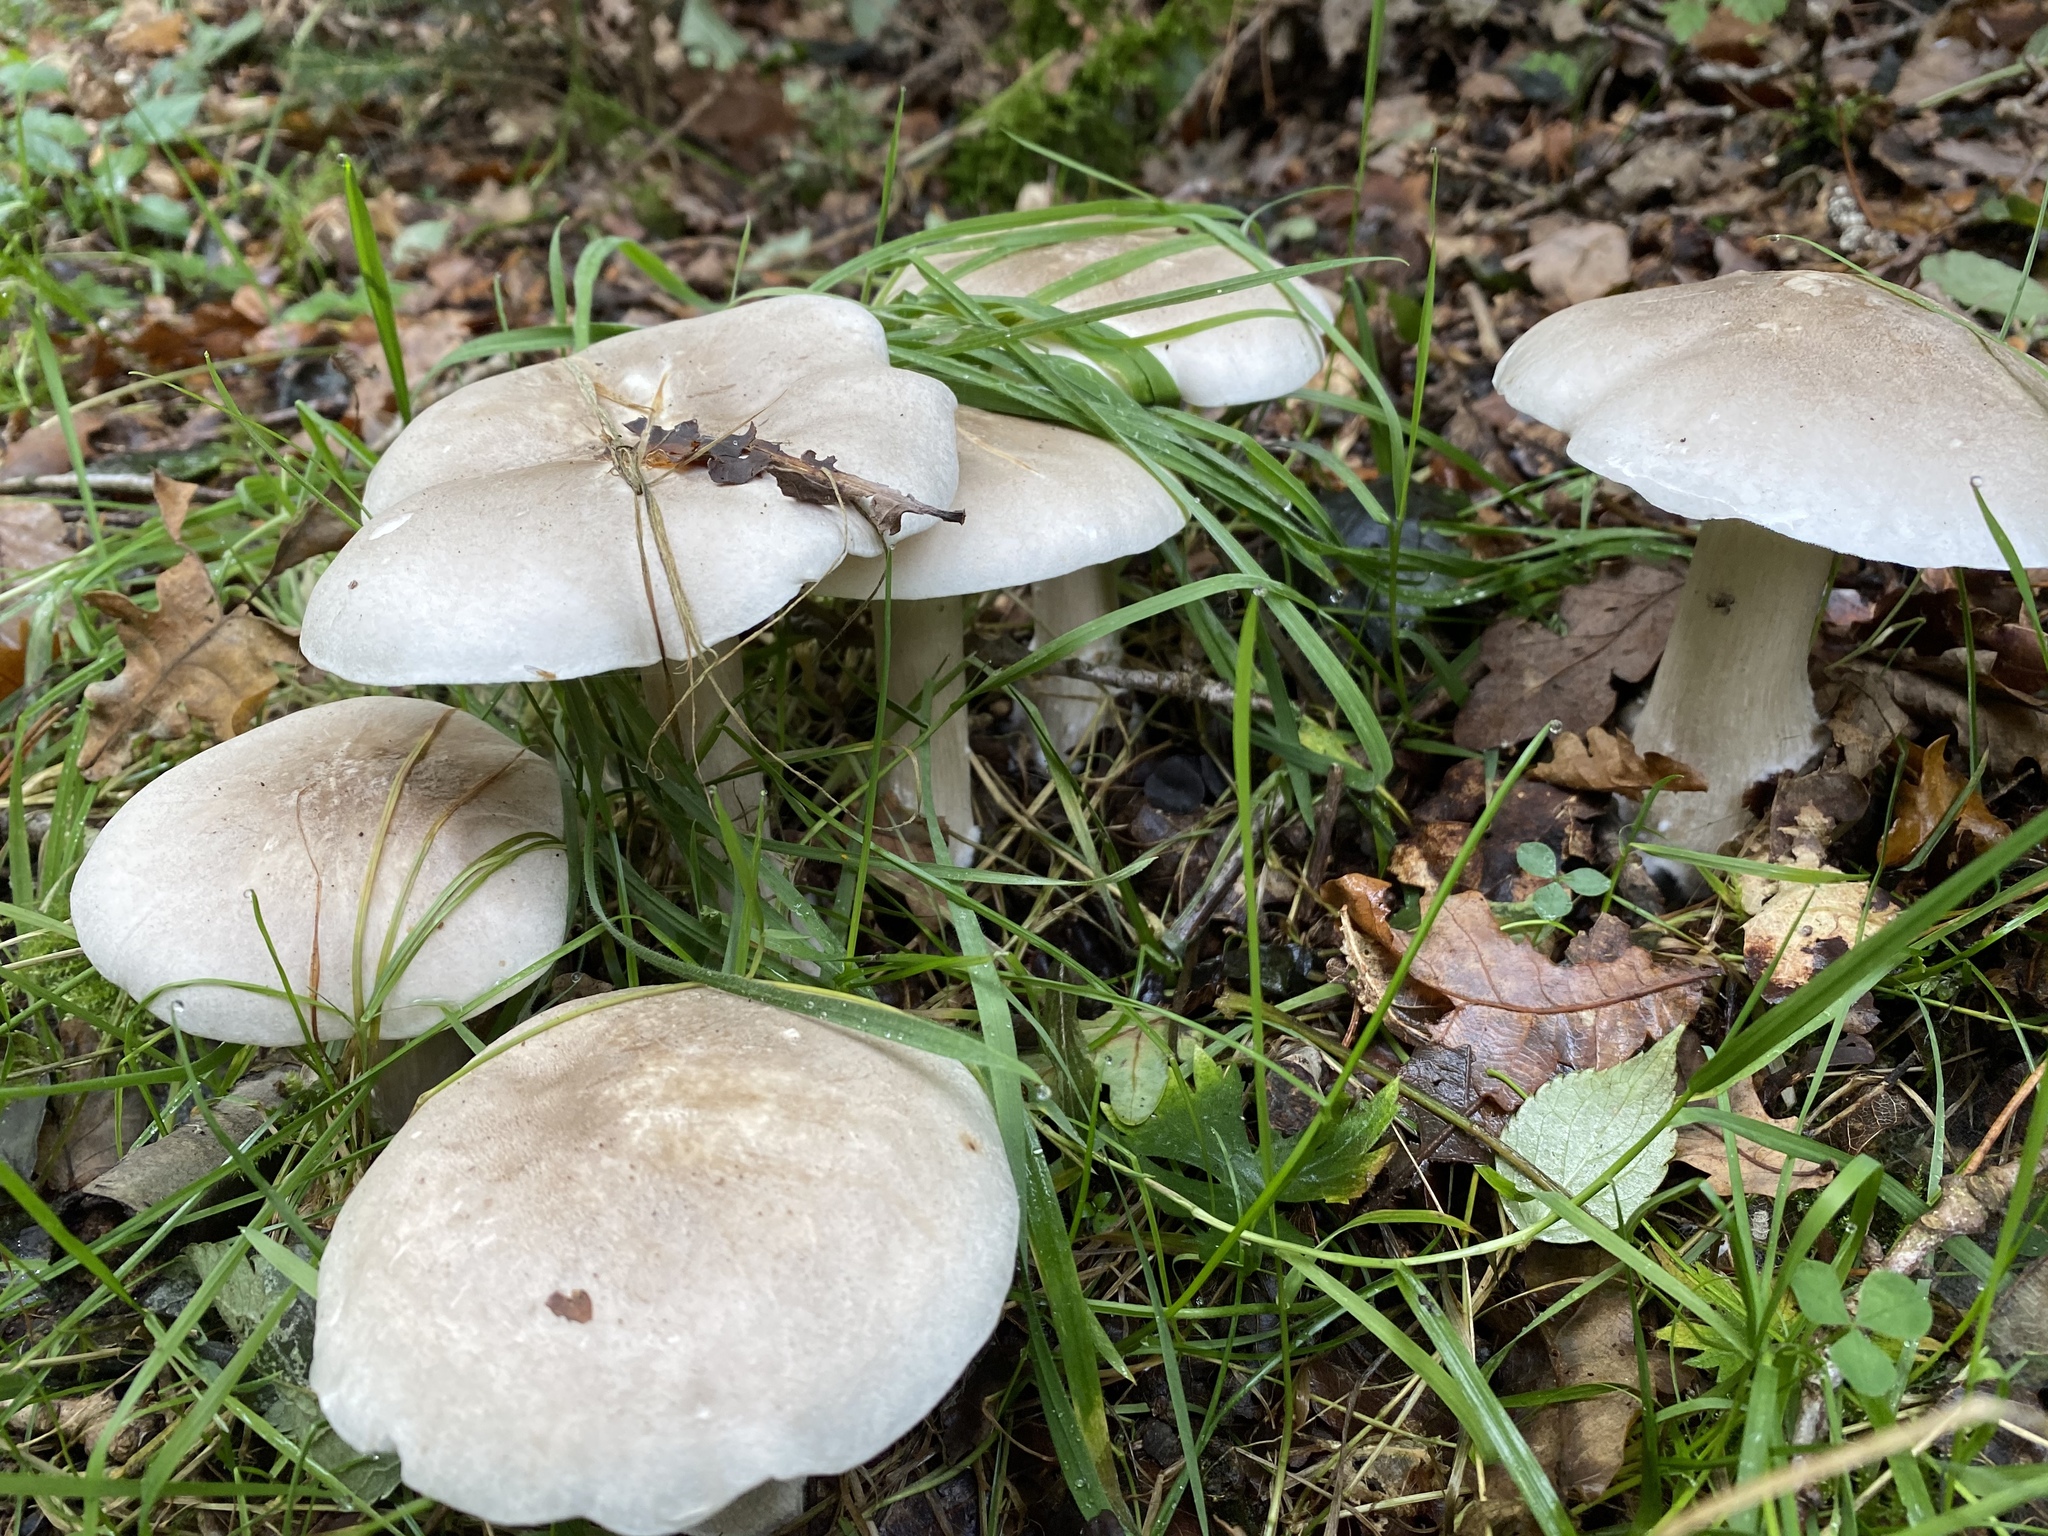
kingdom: Fungi
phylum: Basidiomycota
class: Agaricomycetes
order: Agaricales
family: Tricholomataceae
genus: Clitocybe
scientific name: Clitocybe nebularis
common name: Clouded agaric
